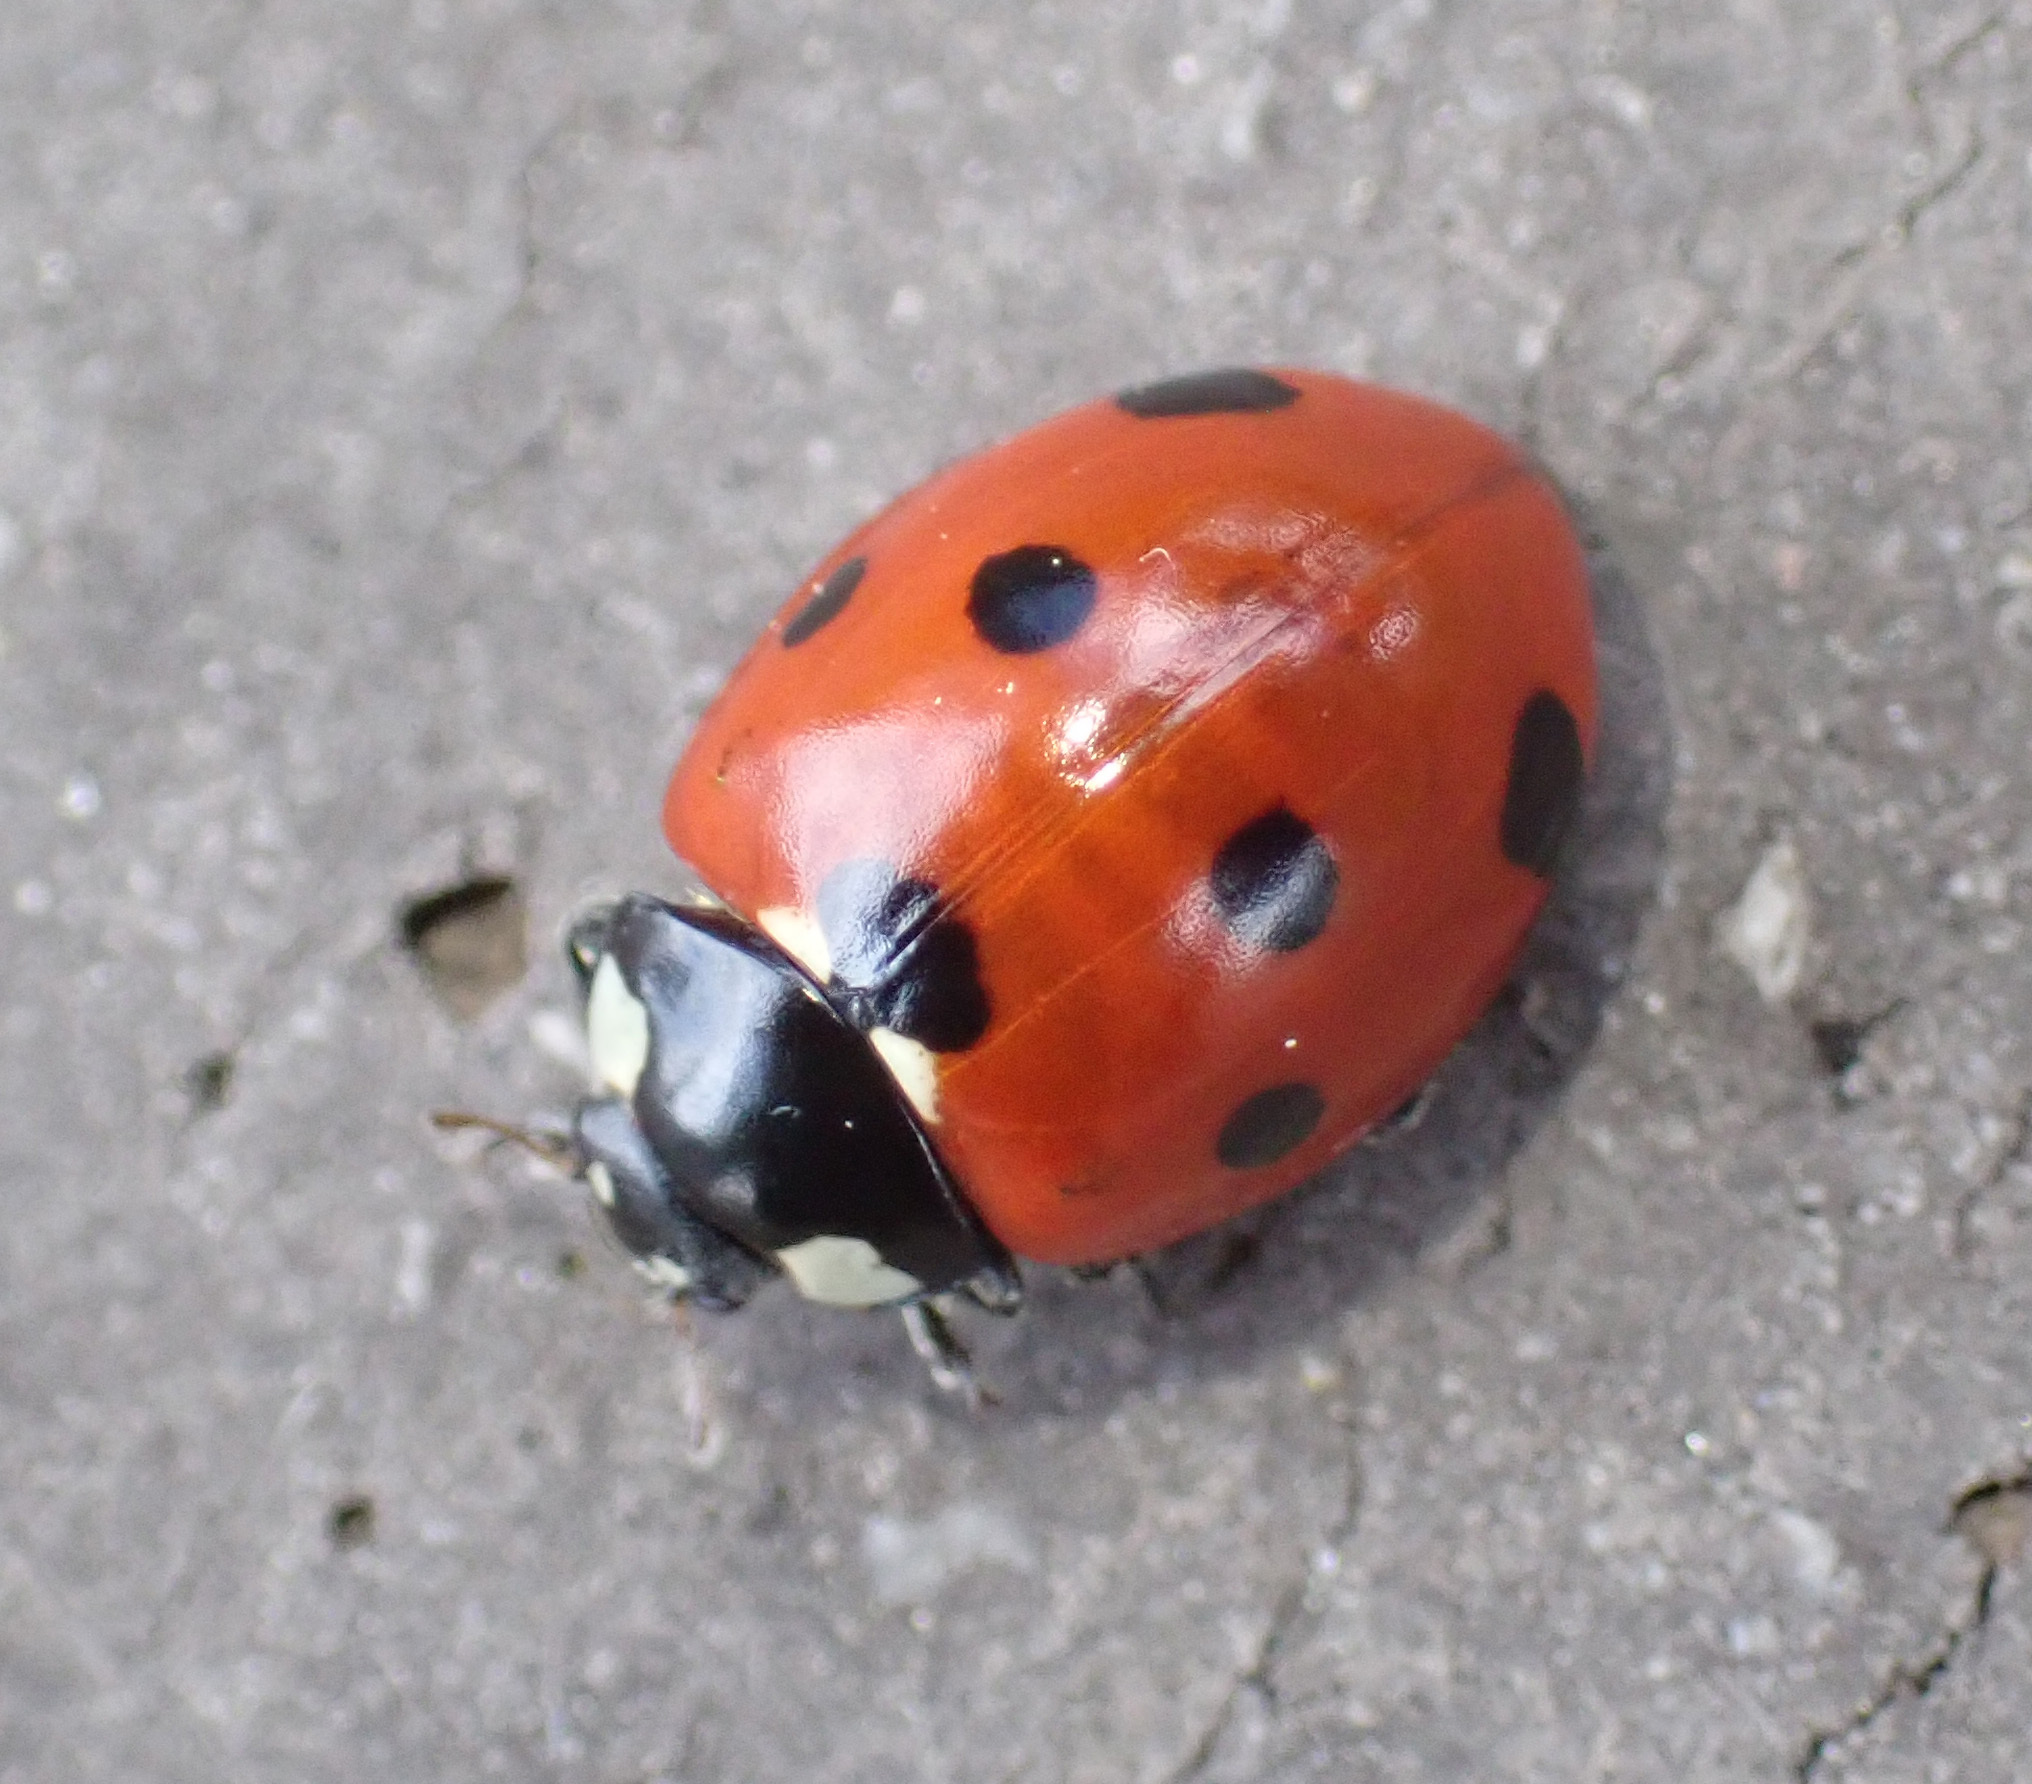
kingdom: Animalia
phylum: Arthropoda
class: Insecta
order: Coleoptera
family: Coccinellidae
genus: Coccinella
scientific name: Coccinella septempunctata
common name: Sevenspotted lady beetle
